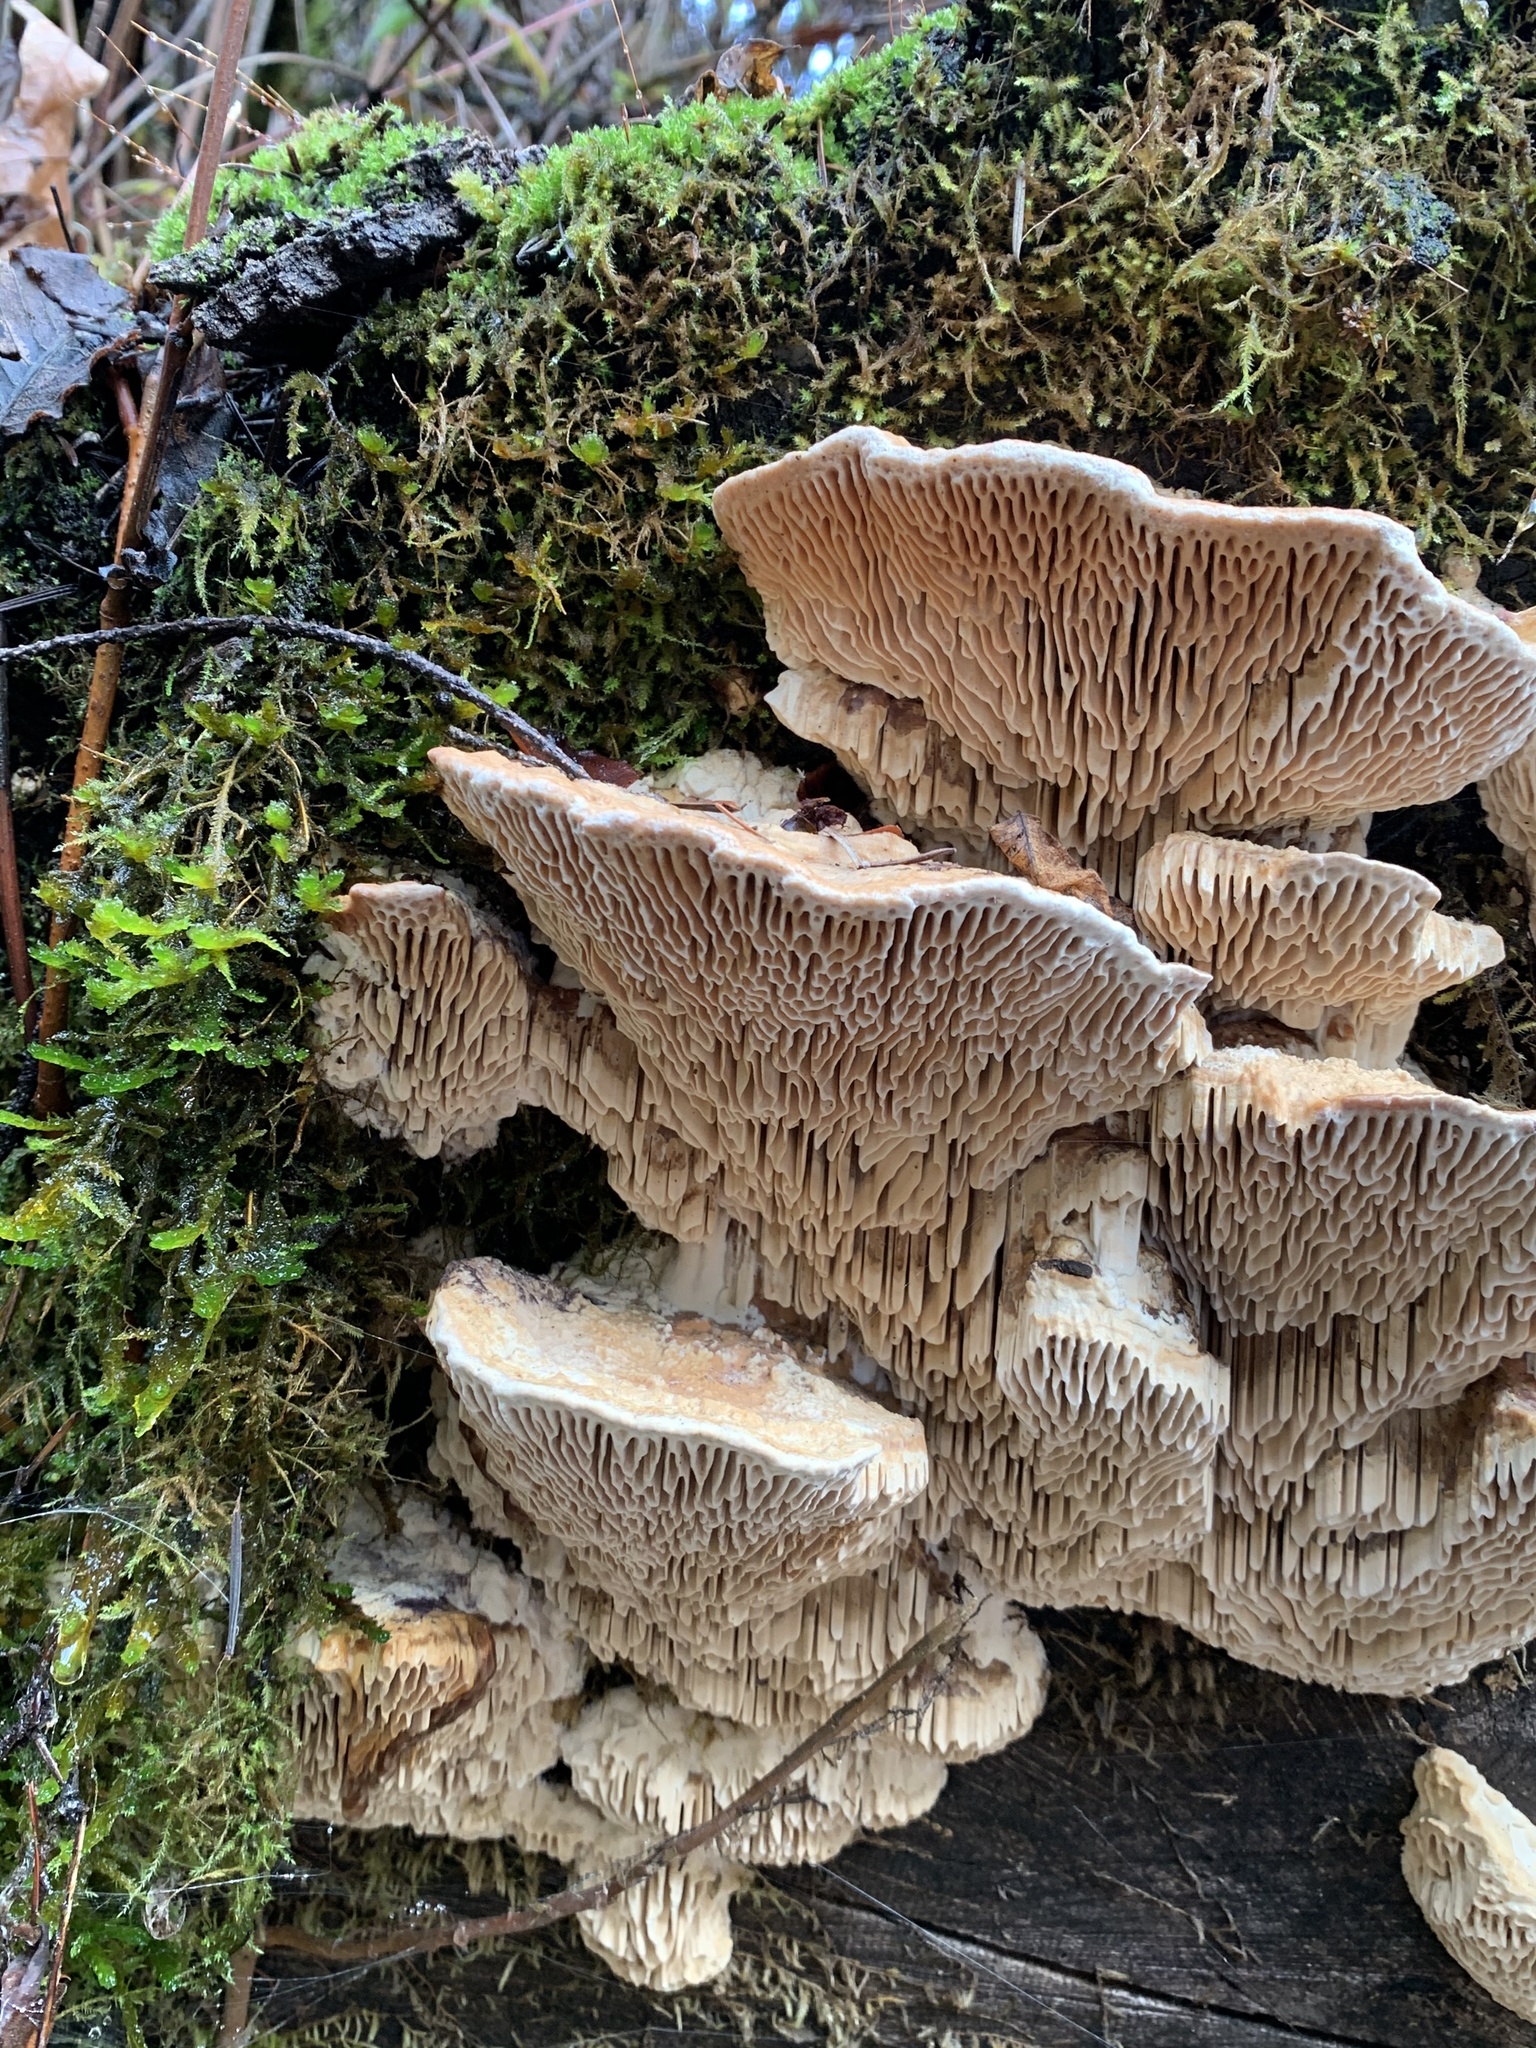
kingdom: Fungi
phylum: Basidiomycota
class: Agaricomycetes
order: Polyporales
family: Fomitopsidaceae
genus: Fomitopsis
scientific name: Fomitopsis
